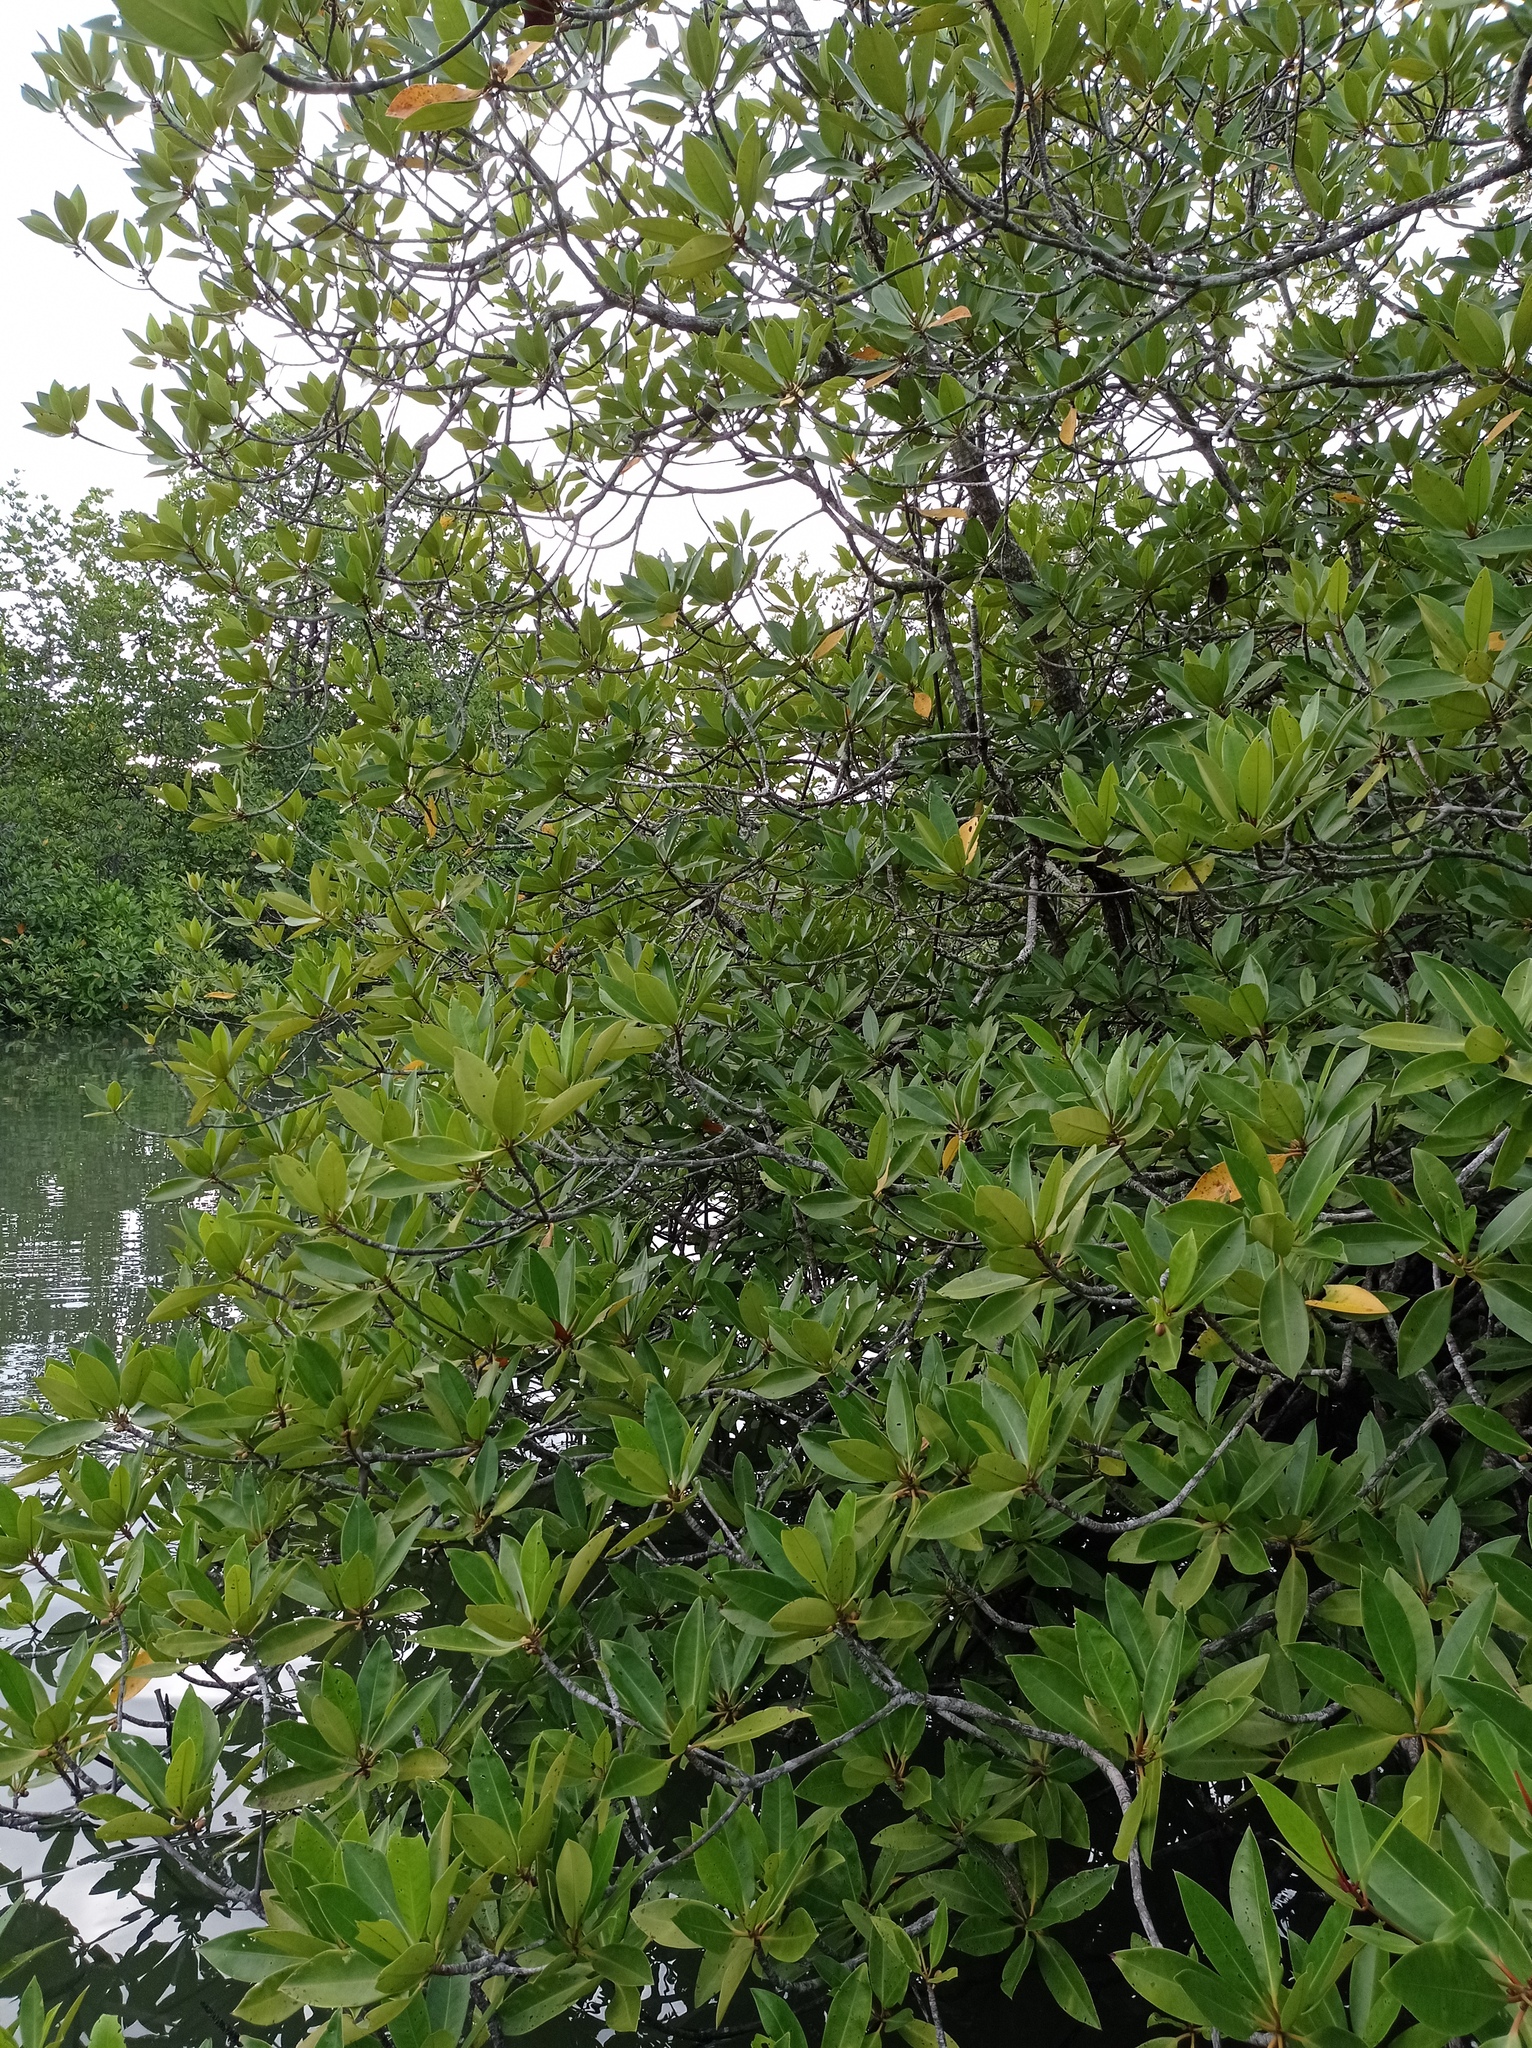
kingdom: Plantae
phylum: Tracheophyta
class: Magnoliopsida
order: Malpighiales
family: Rhizophoraceae
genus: Rhizophora
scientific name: Rhizophora apiculata
